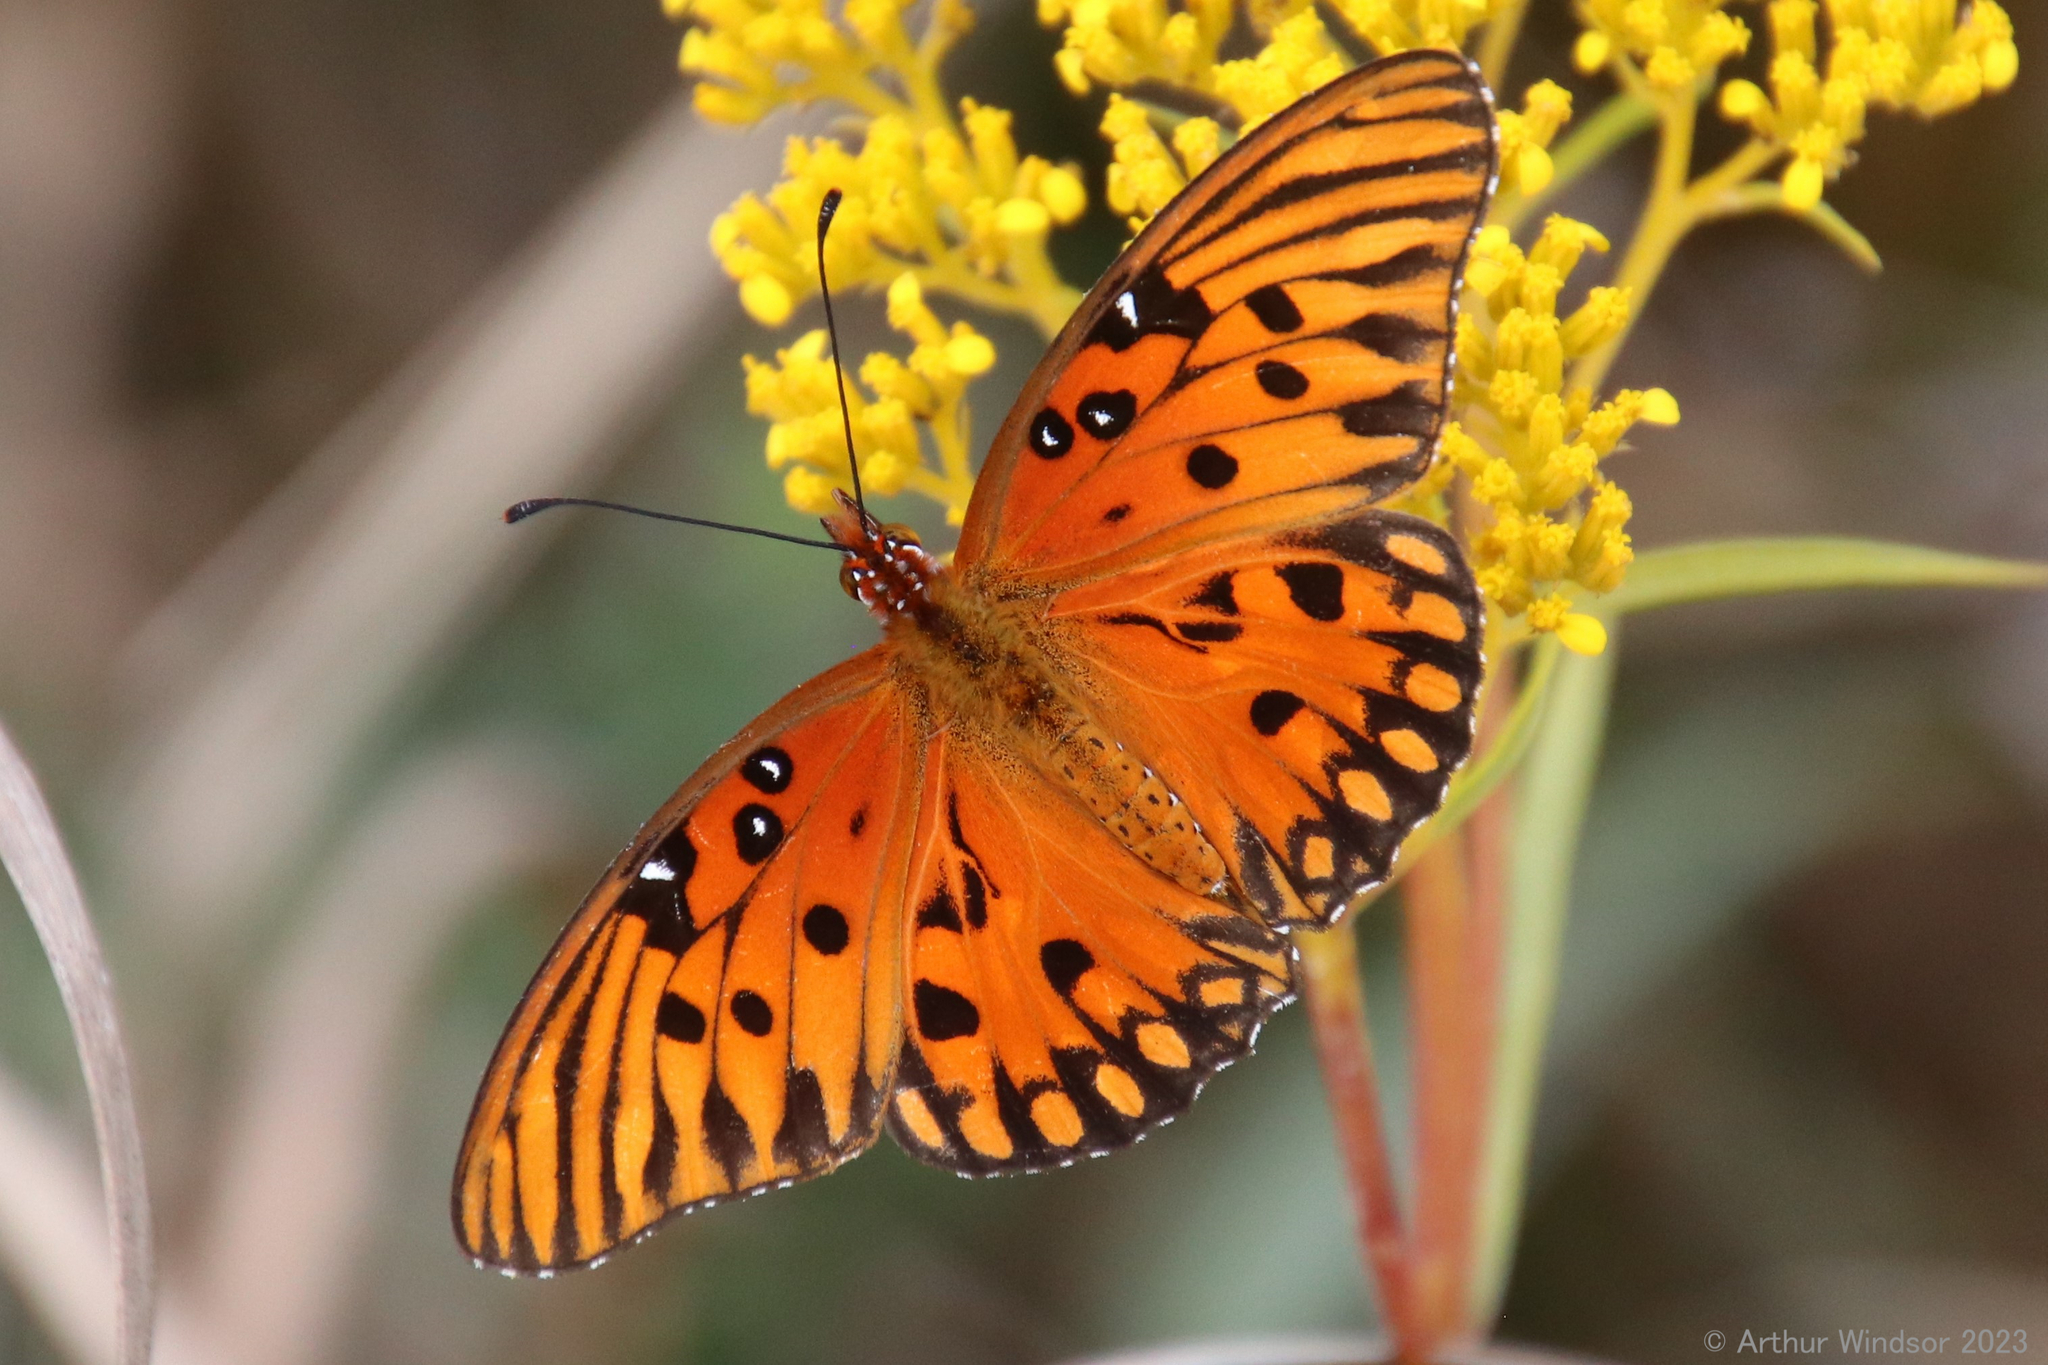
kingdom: Animalia
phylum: Arthropoda
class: Insecta
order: Lepidoptera
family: Nymphalidae
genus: Dione
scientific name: Dione vanillae
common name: Gulf fritillary
